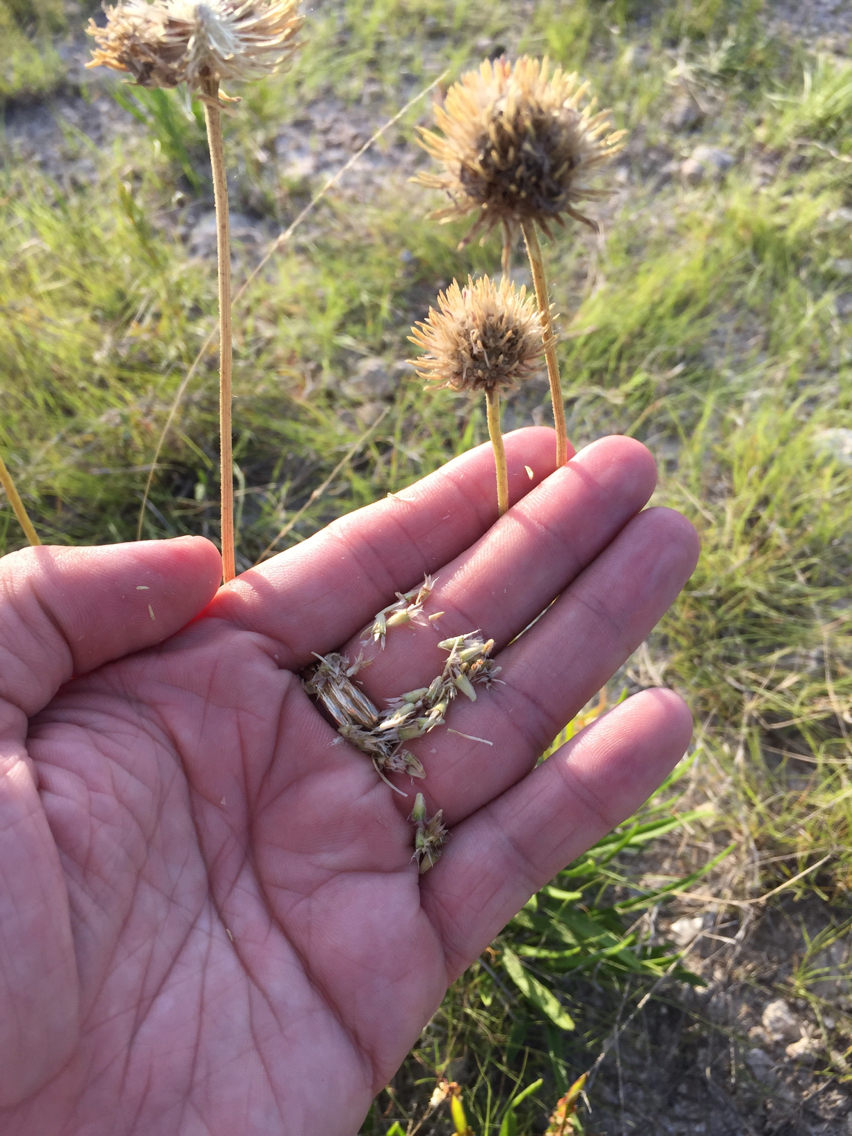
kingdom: Plantae
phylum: Tracheophyta
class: Magnoliopsida
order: Asterales
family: Asteraceae
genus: Marshallia
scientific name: Marshallia caespitosa
